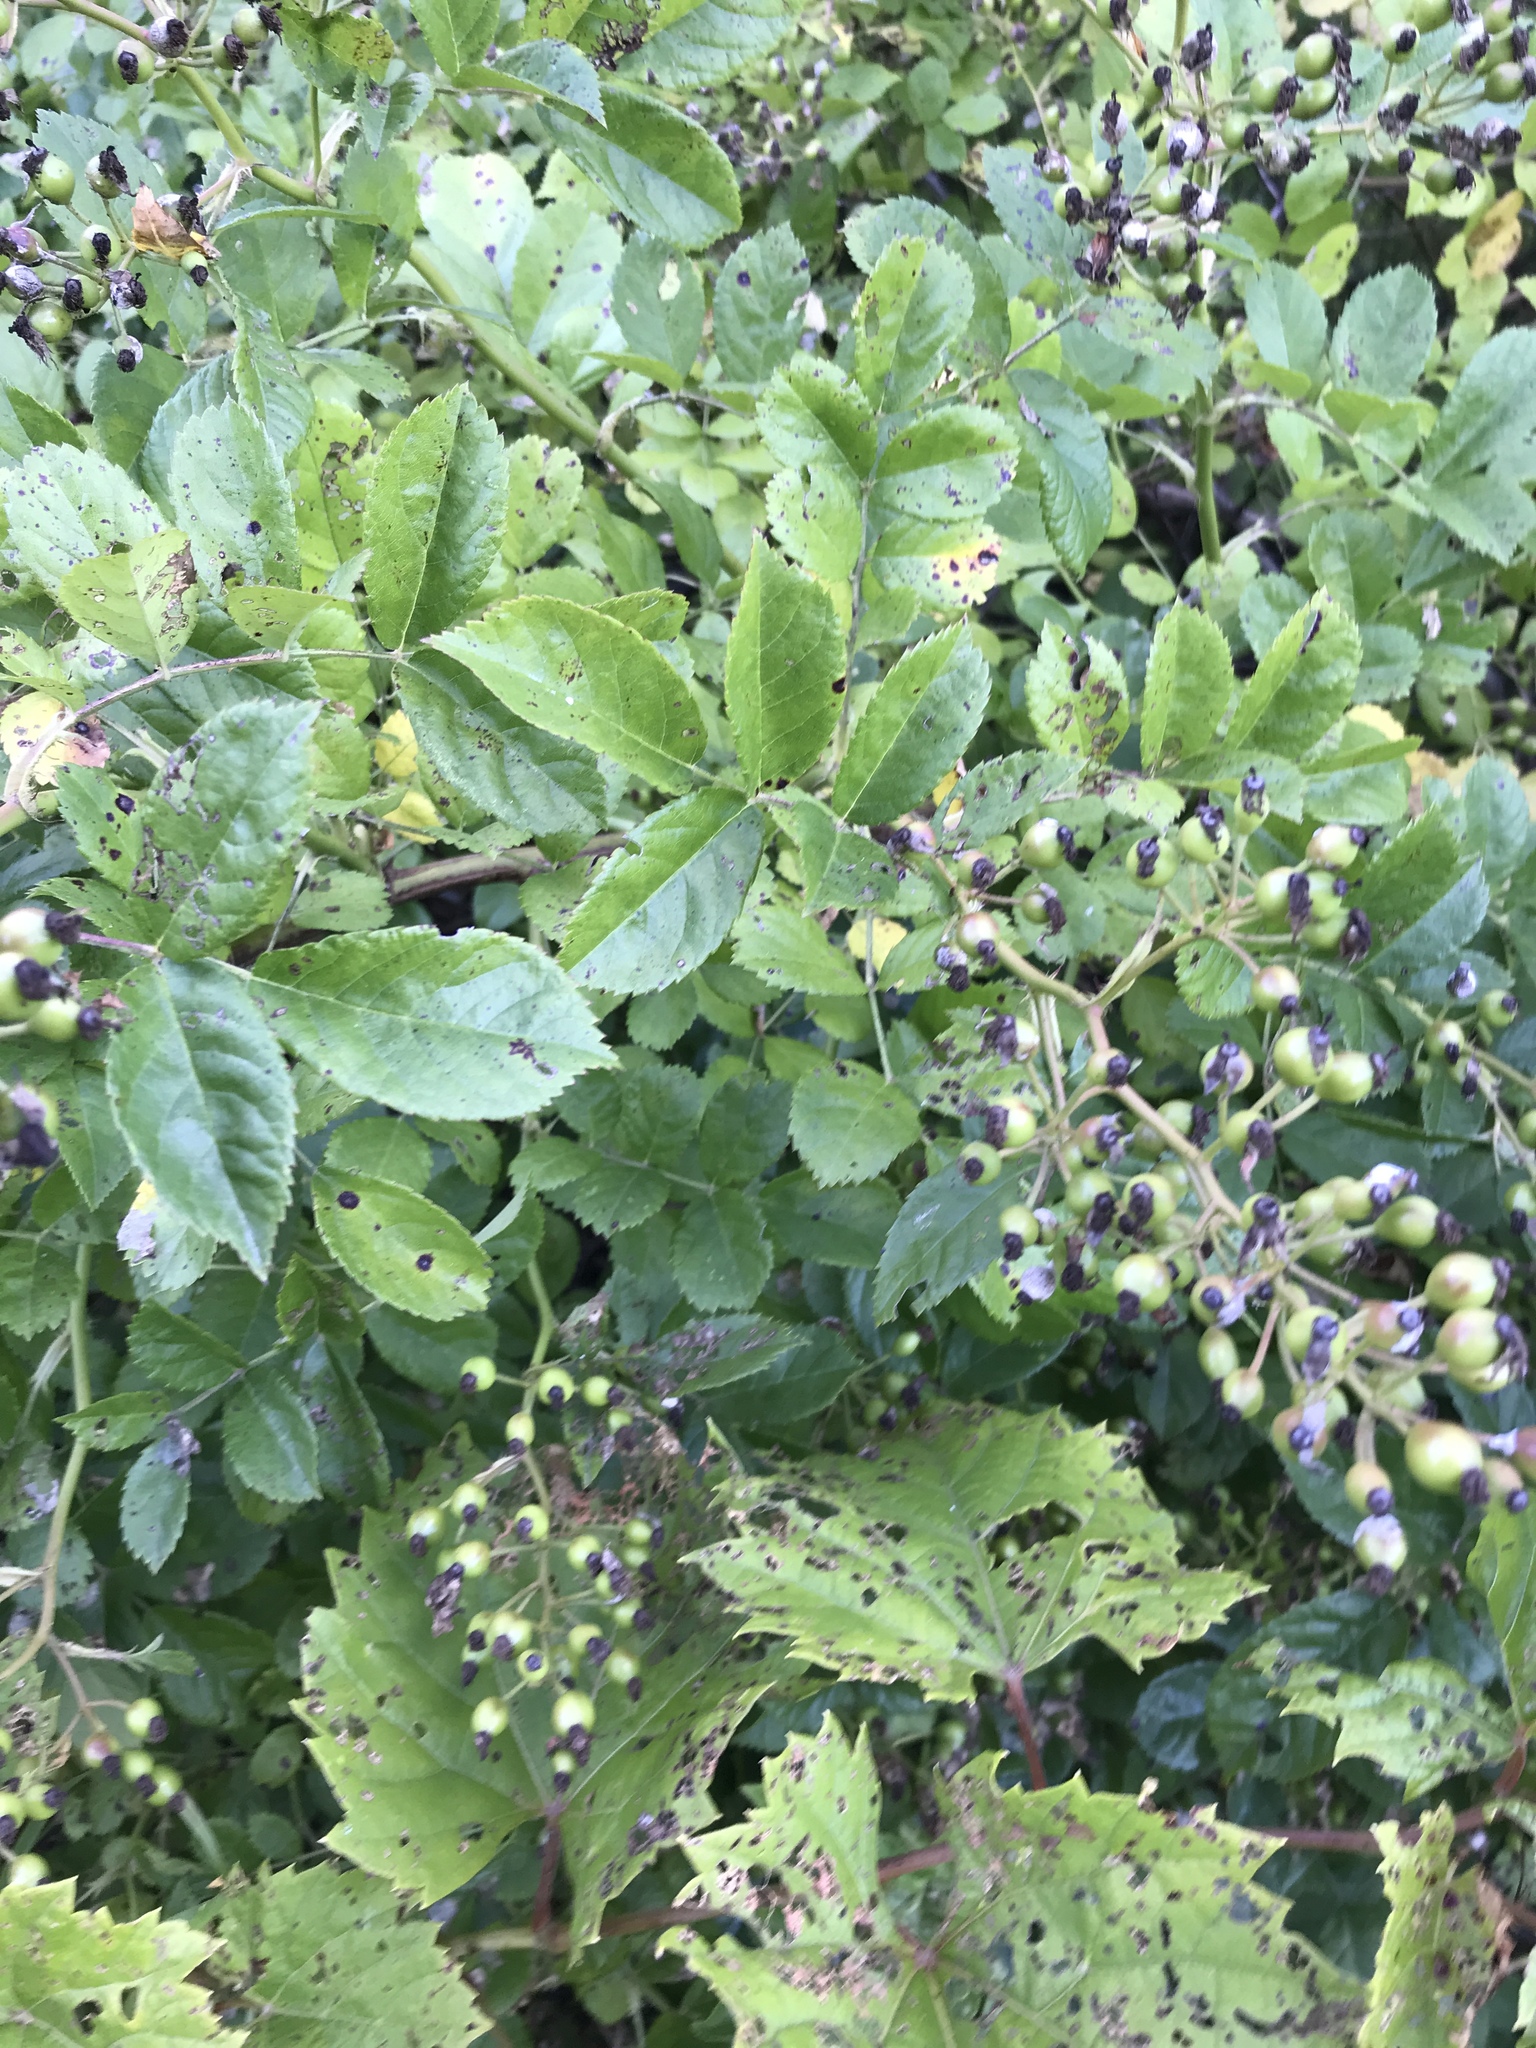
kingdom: Plantae
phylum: Tracheophyta
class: Magnoliopsida
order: Rosales
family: Rosaceae
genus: Rosa
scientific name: Rosa multiflora
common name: Multiflora rose
